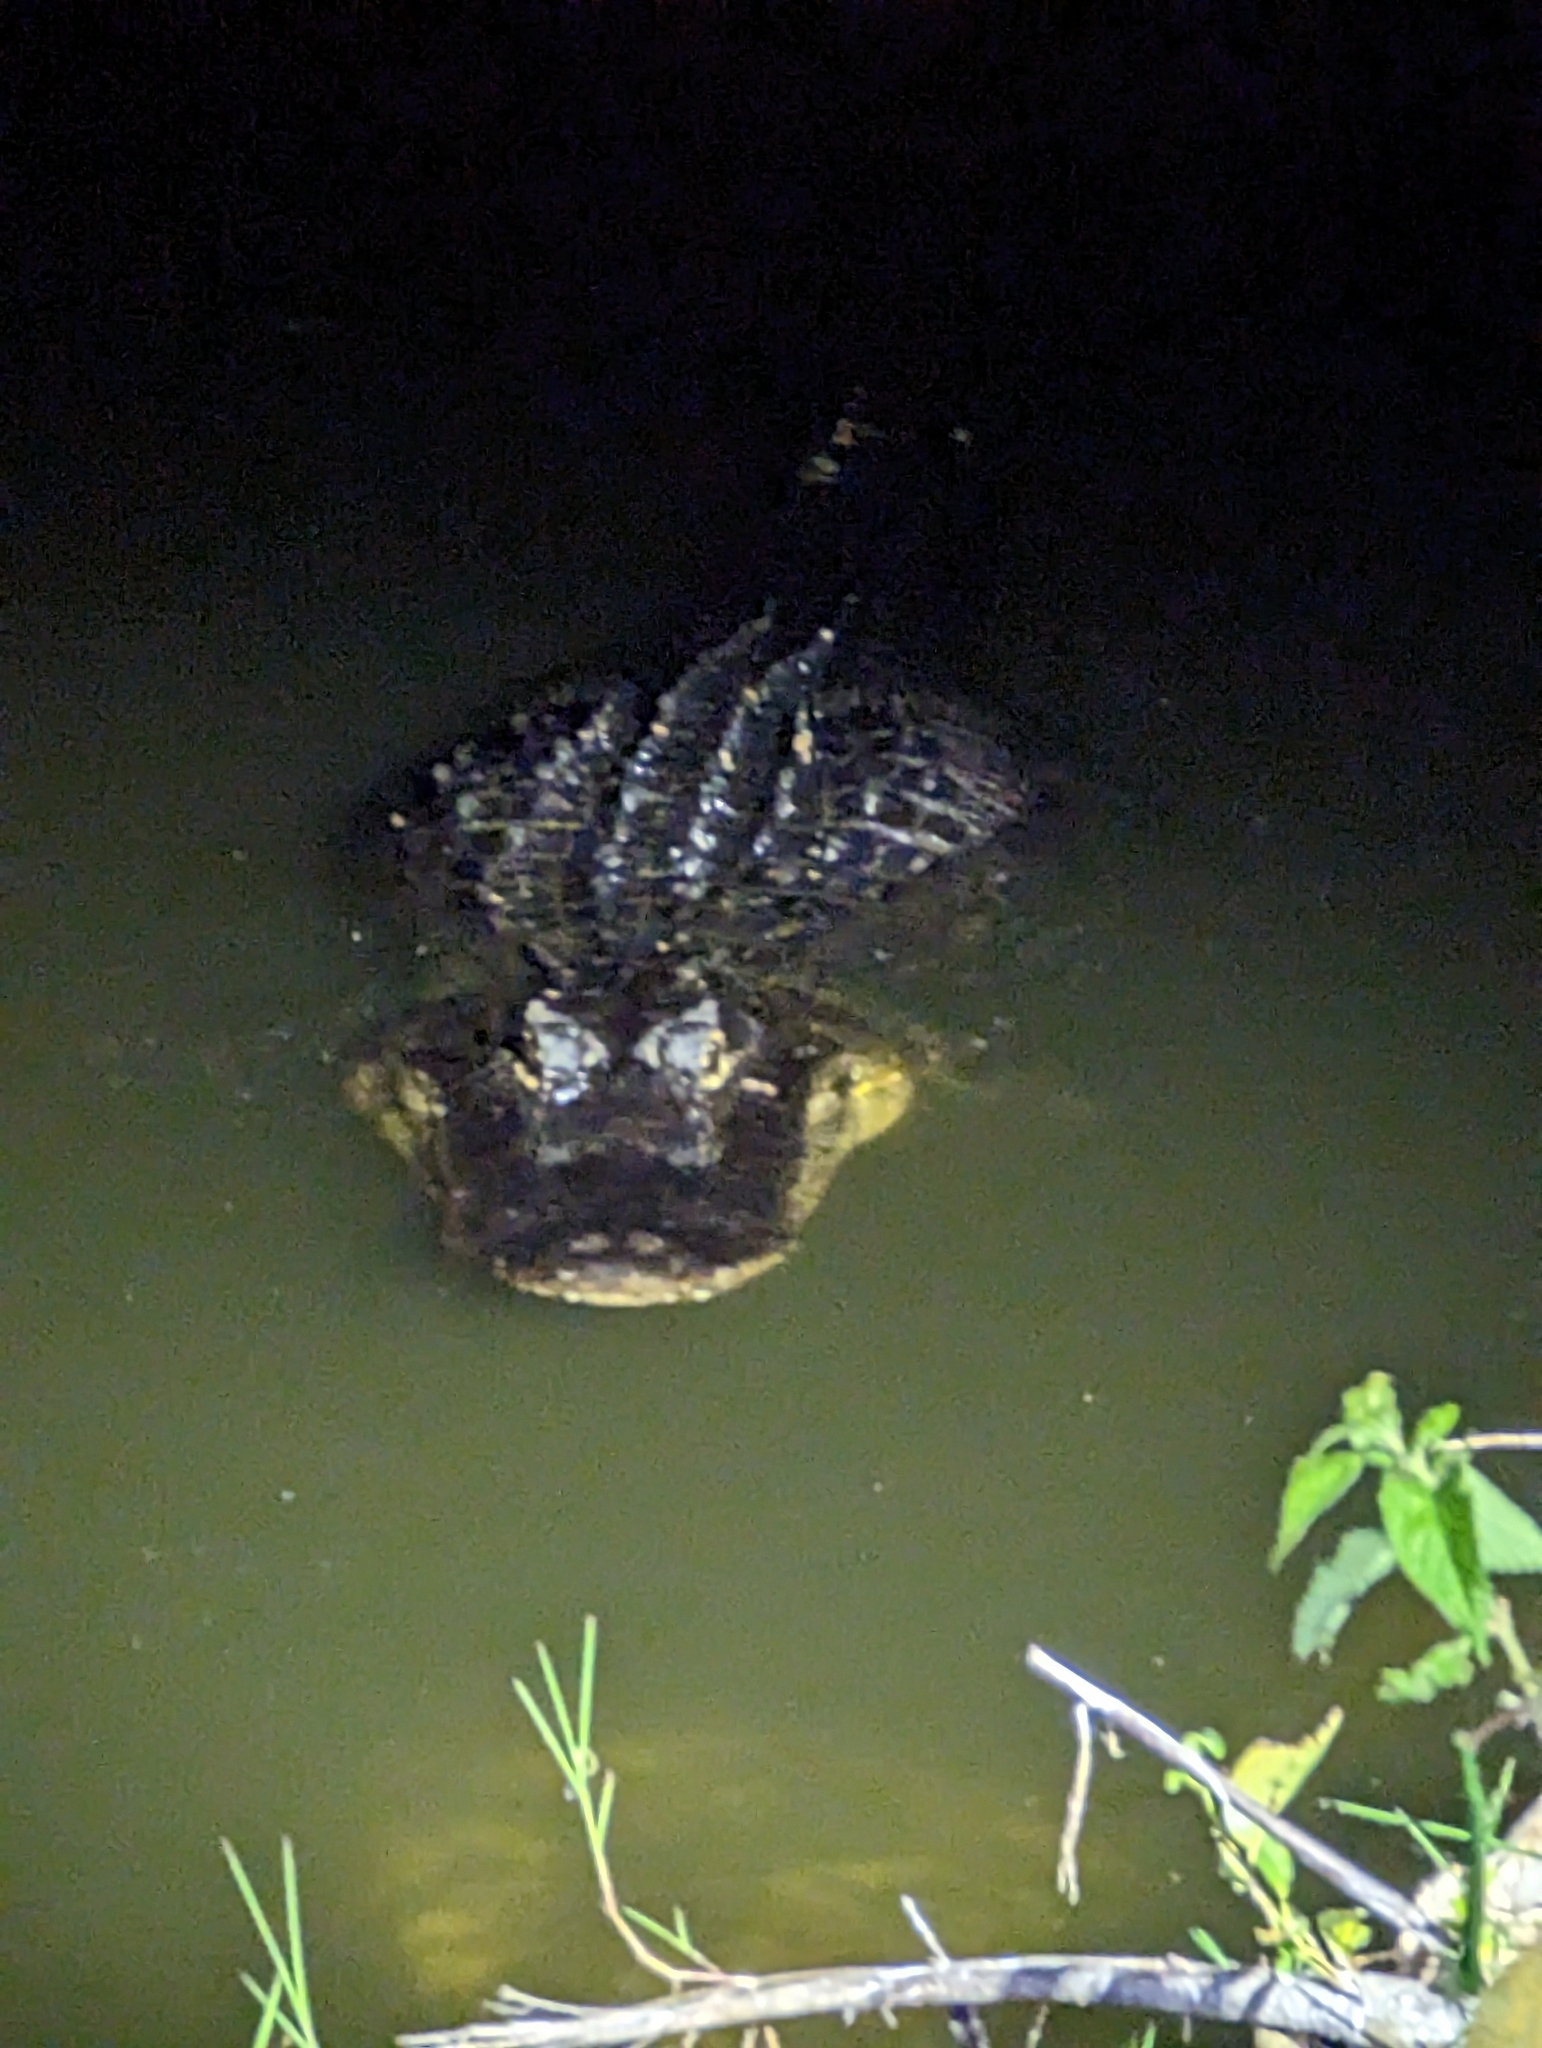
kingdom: Animalia
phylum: Chordata
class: Crocodylia
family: Alligatoridae
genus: Alligator
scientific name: Alligator mississippiensis
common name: American alligator
